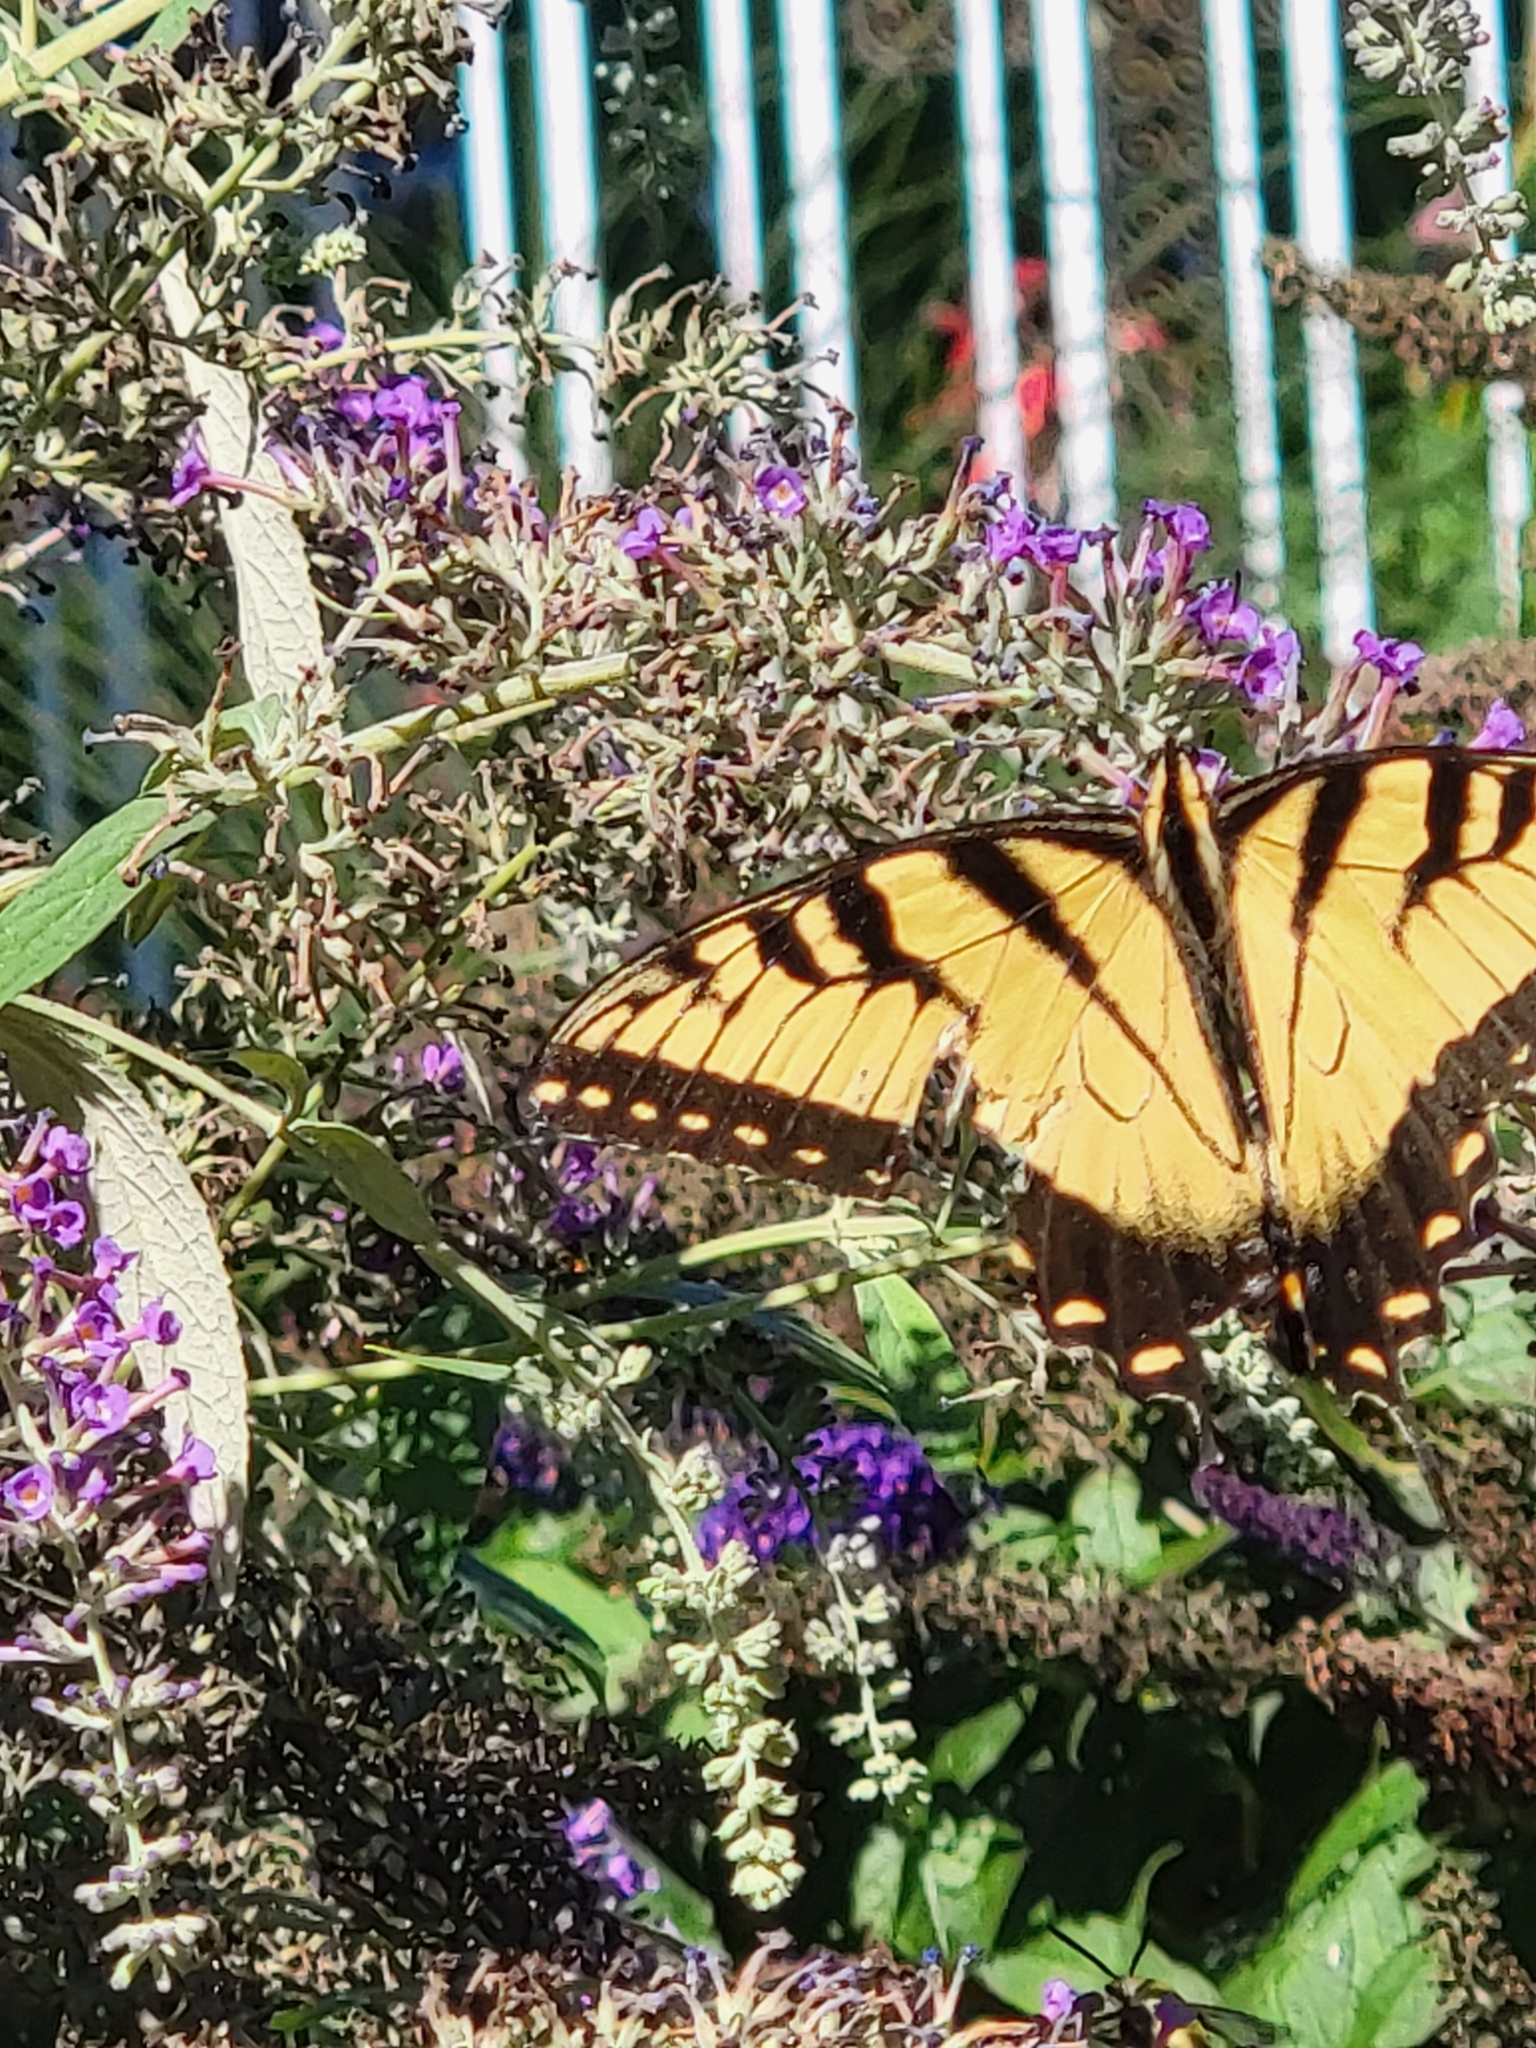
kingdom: Animalia
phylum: Arthropoda
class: Insecta
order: Lepidoptera
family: Papilionidae
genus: Papilio
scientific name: Papilio glaucus
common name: Tiger swallowtail
